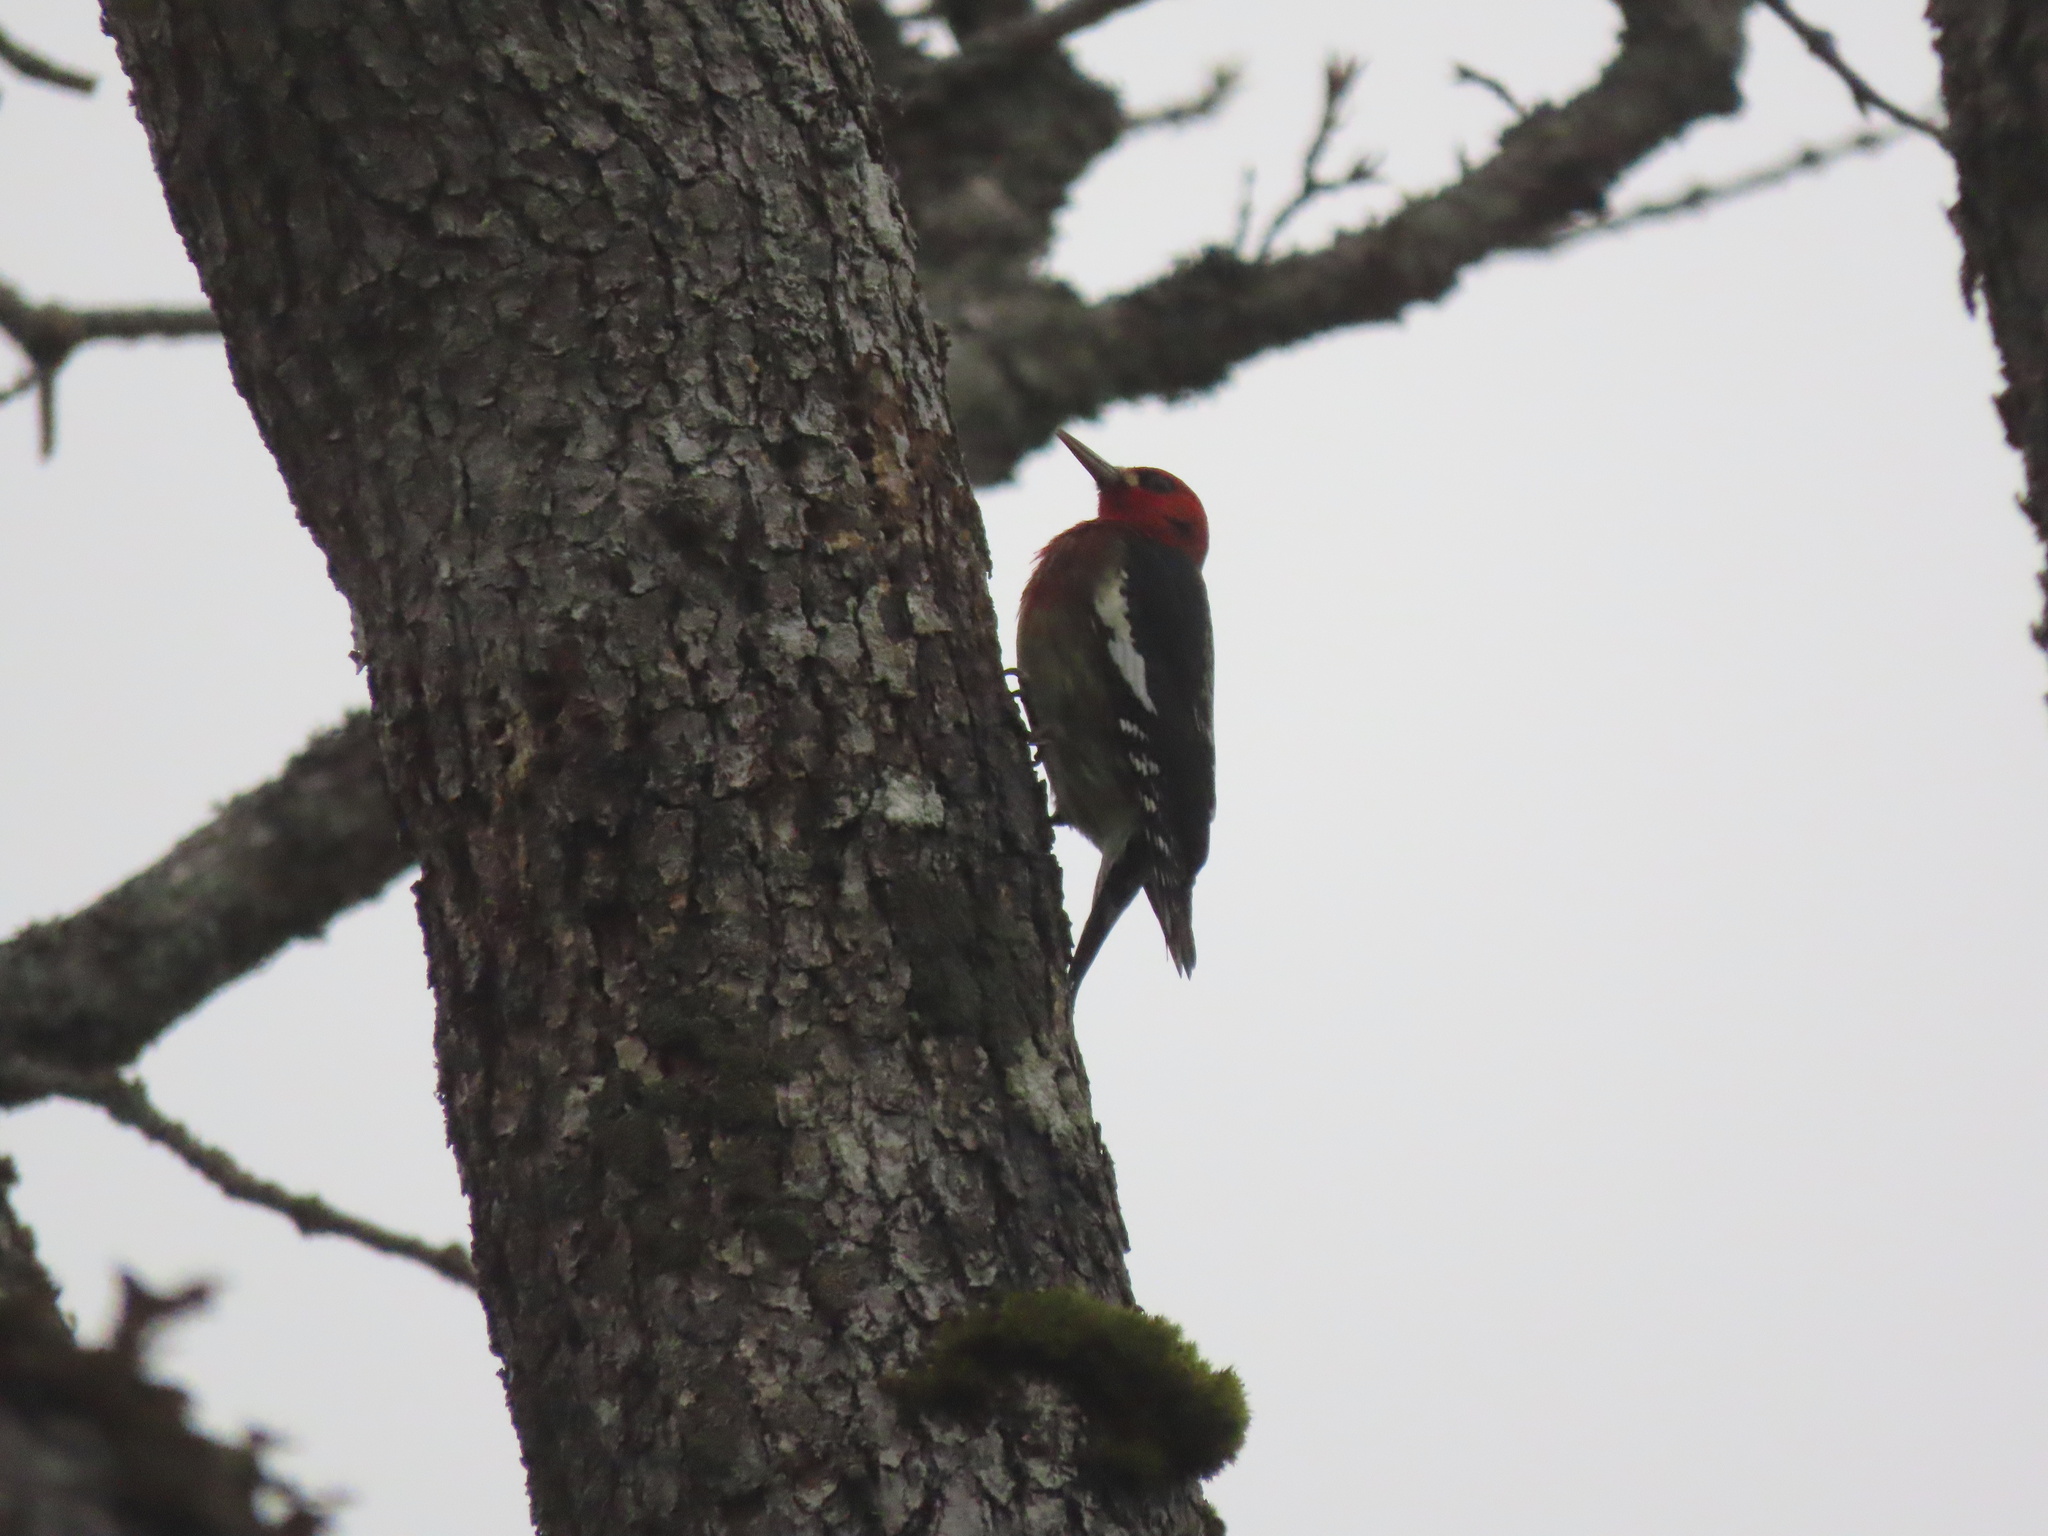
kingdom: Animalia
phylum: Chordata
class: Aves
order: Piciformes
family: Picidae
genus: Sphyrapicus
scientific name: Sphyrapicus ruber
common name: Red-breasted sapsucker
